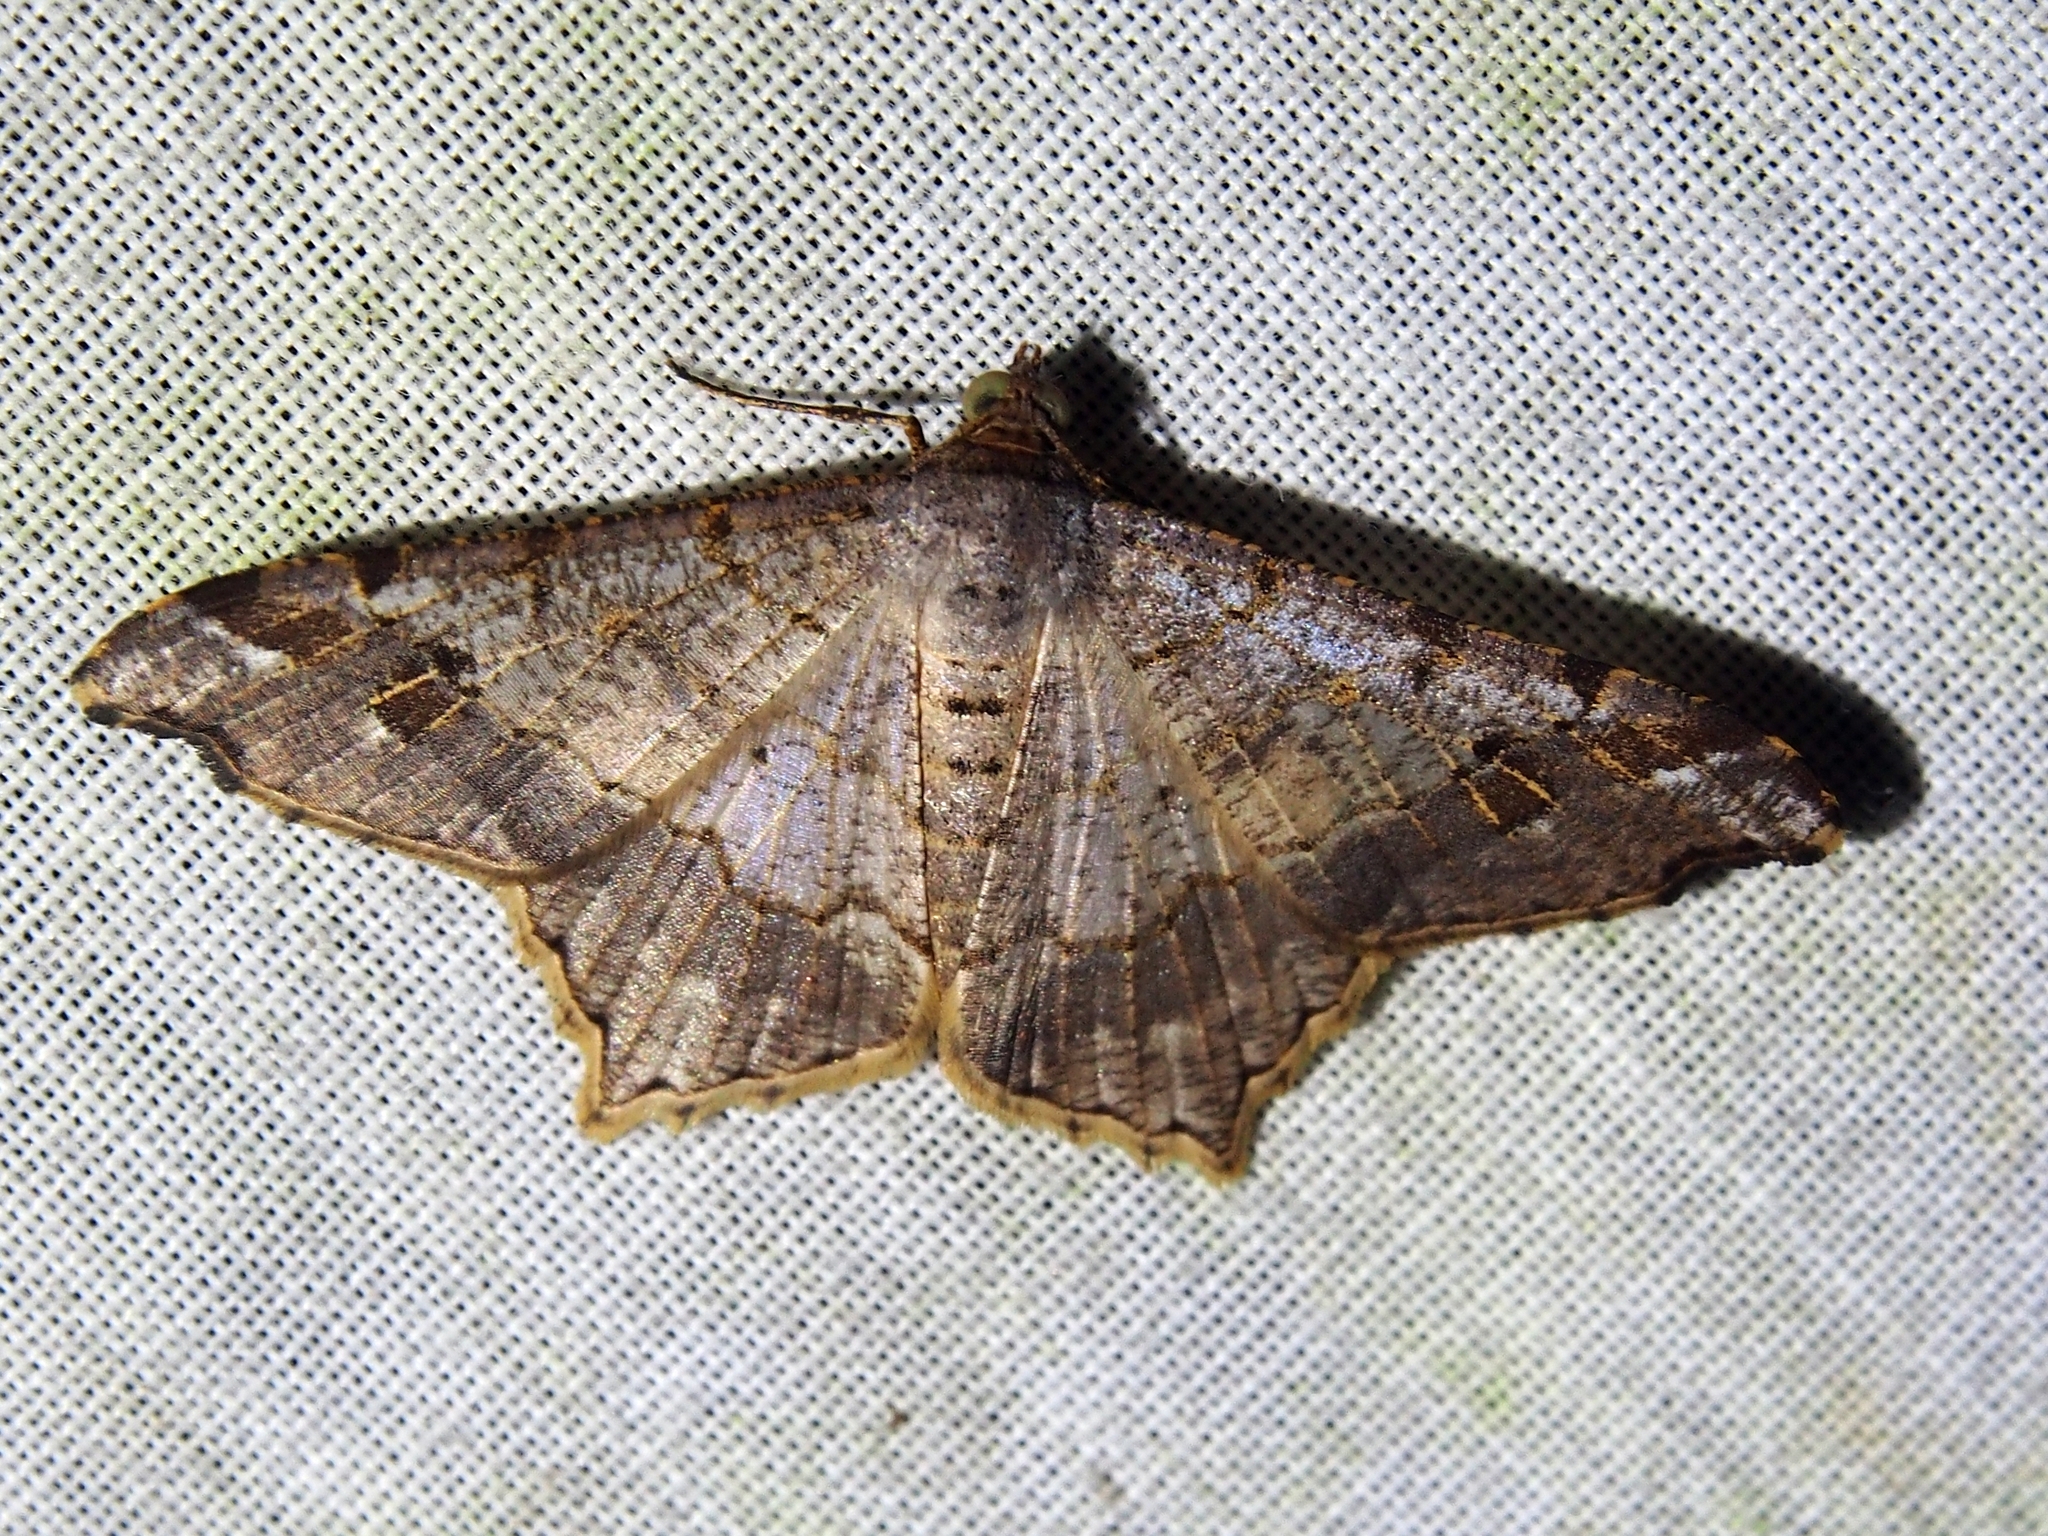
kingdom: Animalia
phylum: Arthropoda
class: Insecta
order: Lepidoptera
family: Geometridae
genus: Macaria
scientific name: Macaria regulata
